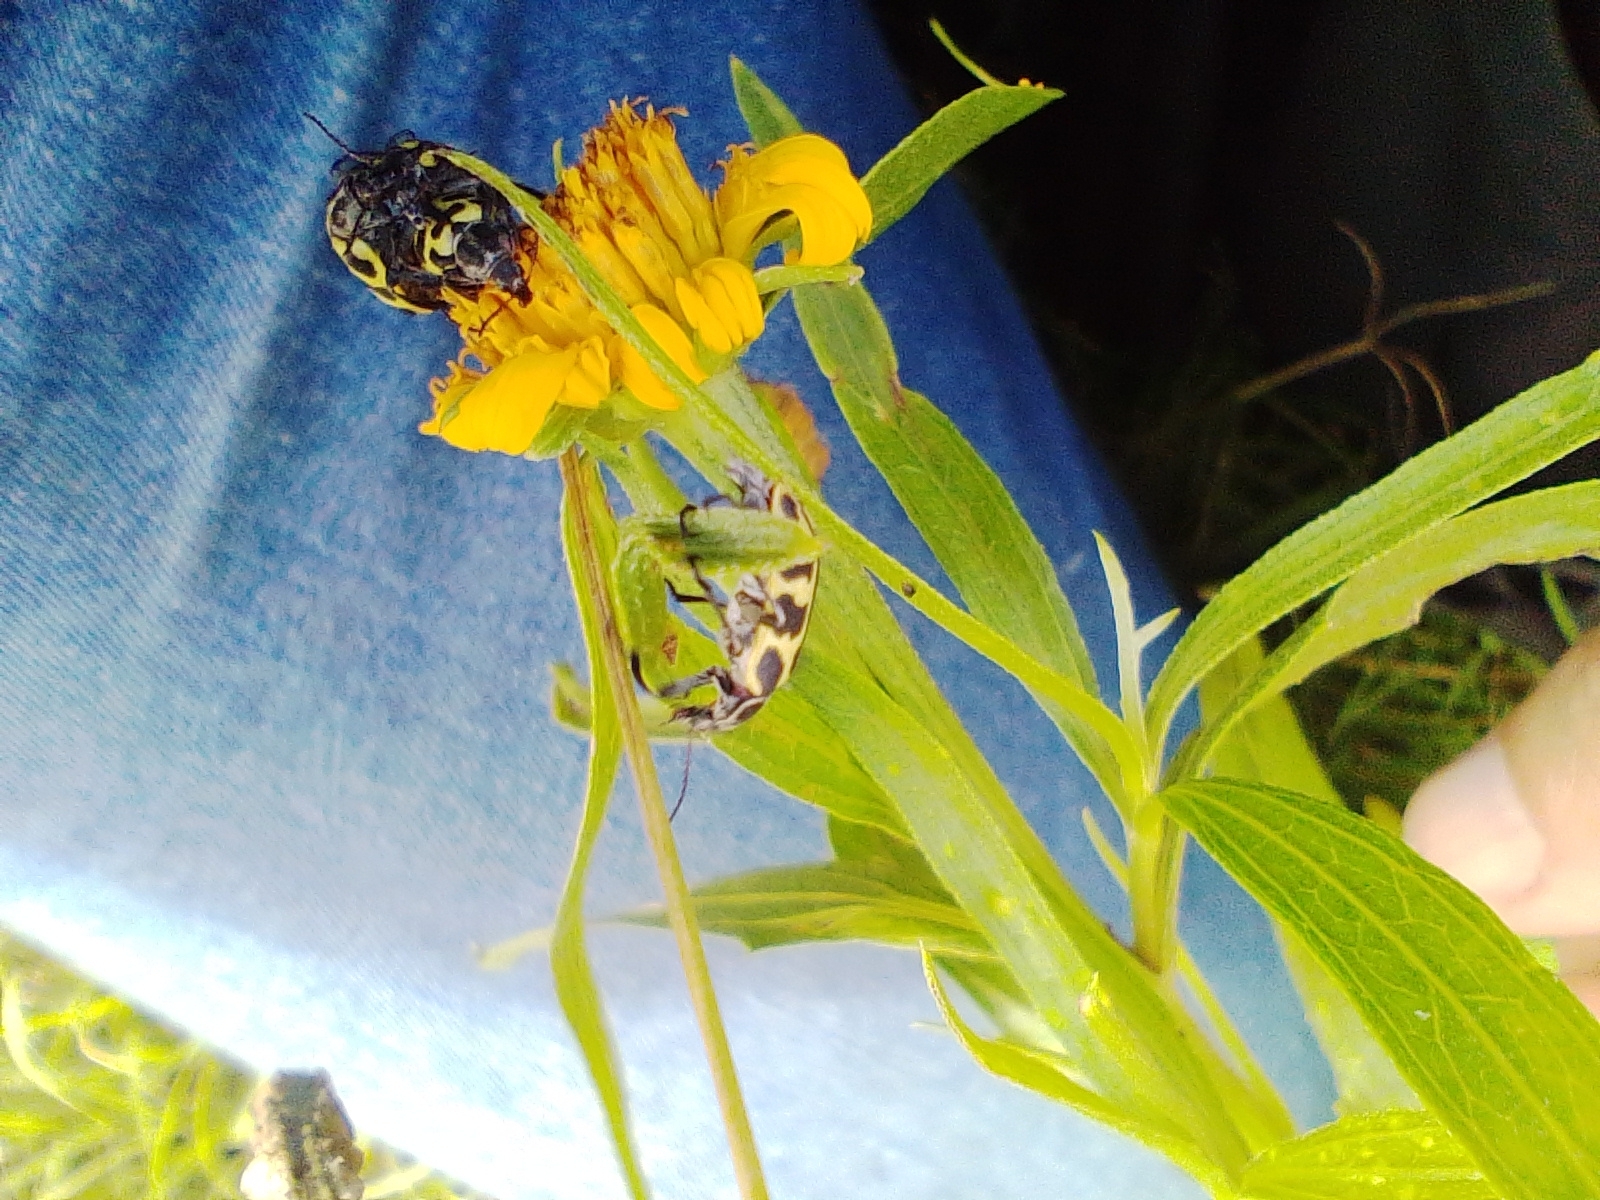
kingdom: Animalia
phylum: Arthropoda
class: Insecta
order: Coleoptera
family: Melyridae
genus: Astylus
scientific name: Astylus atromaculatus
